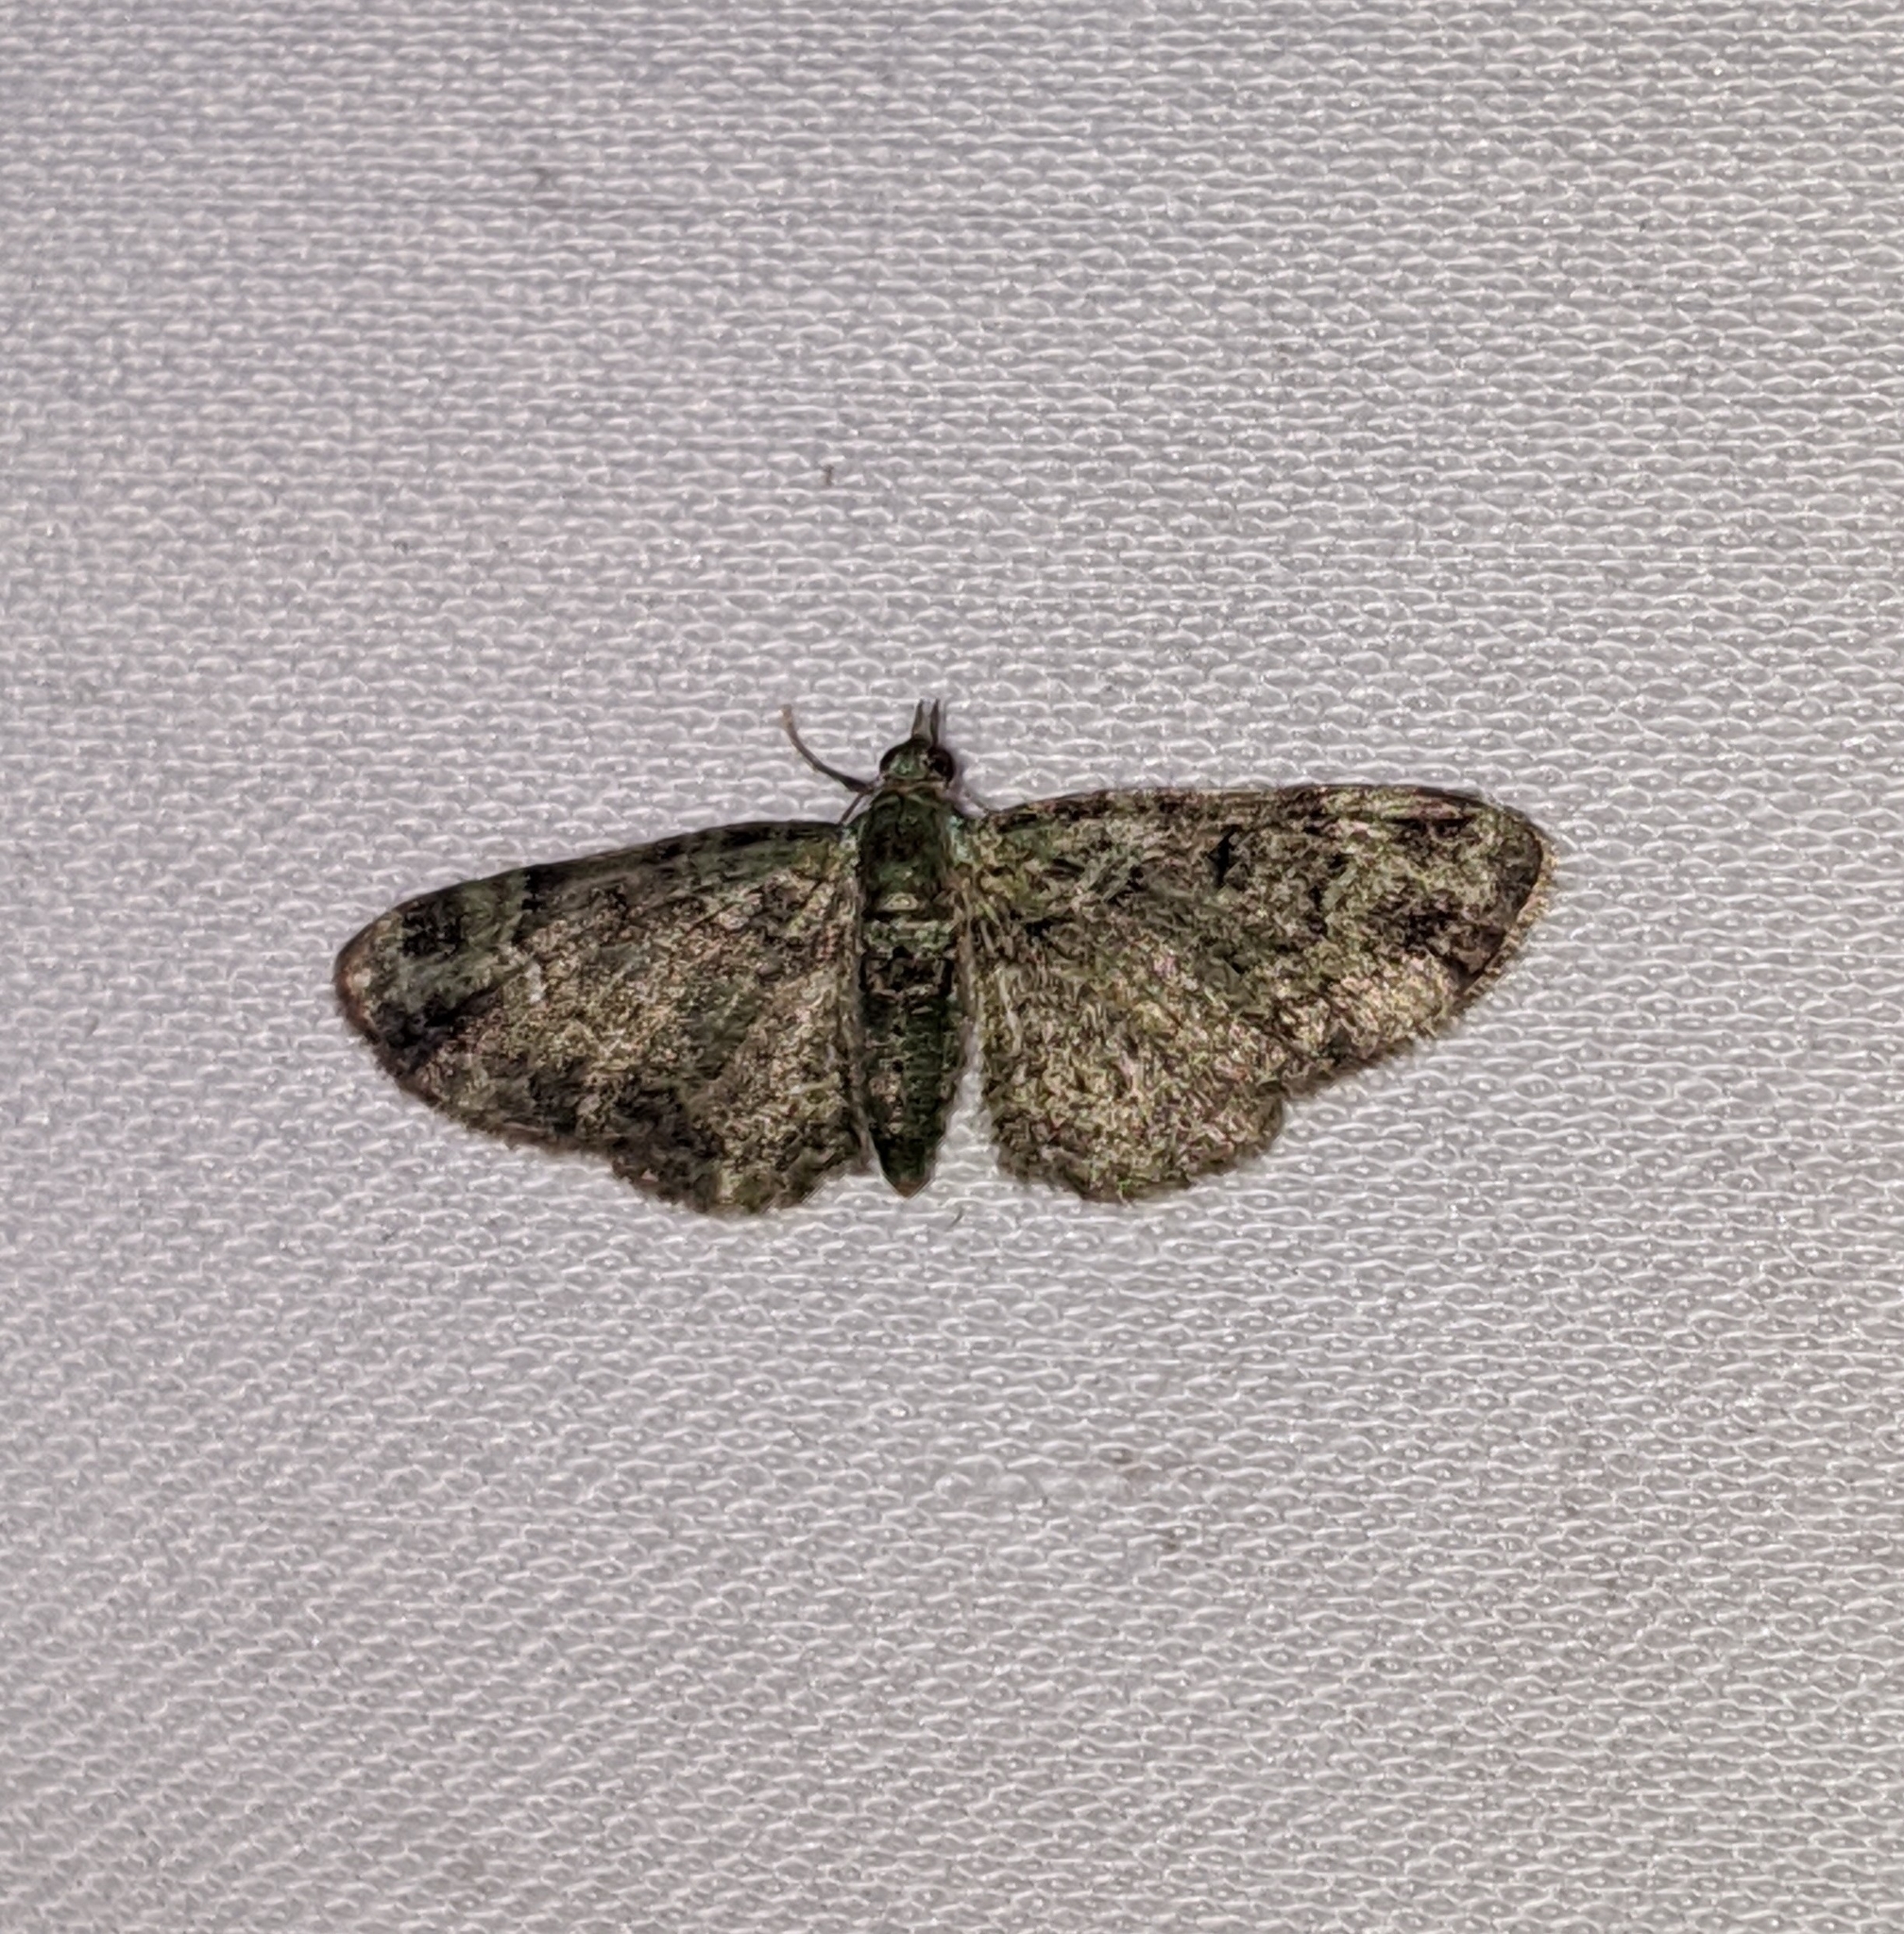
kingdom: Animalia
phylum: Arthropoda
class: Insecta
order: Lepidoptera
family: Geometridae
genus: Pasiphila
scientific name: Pasiphila rectangulata
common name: Green pug
